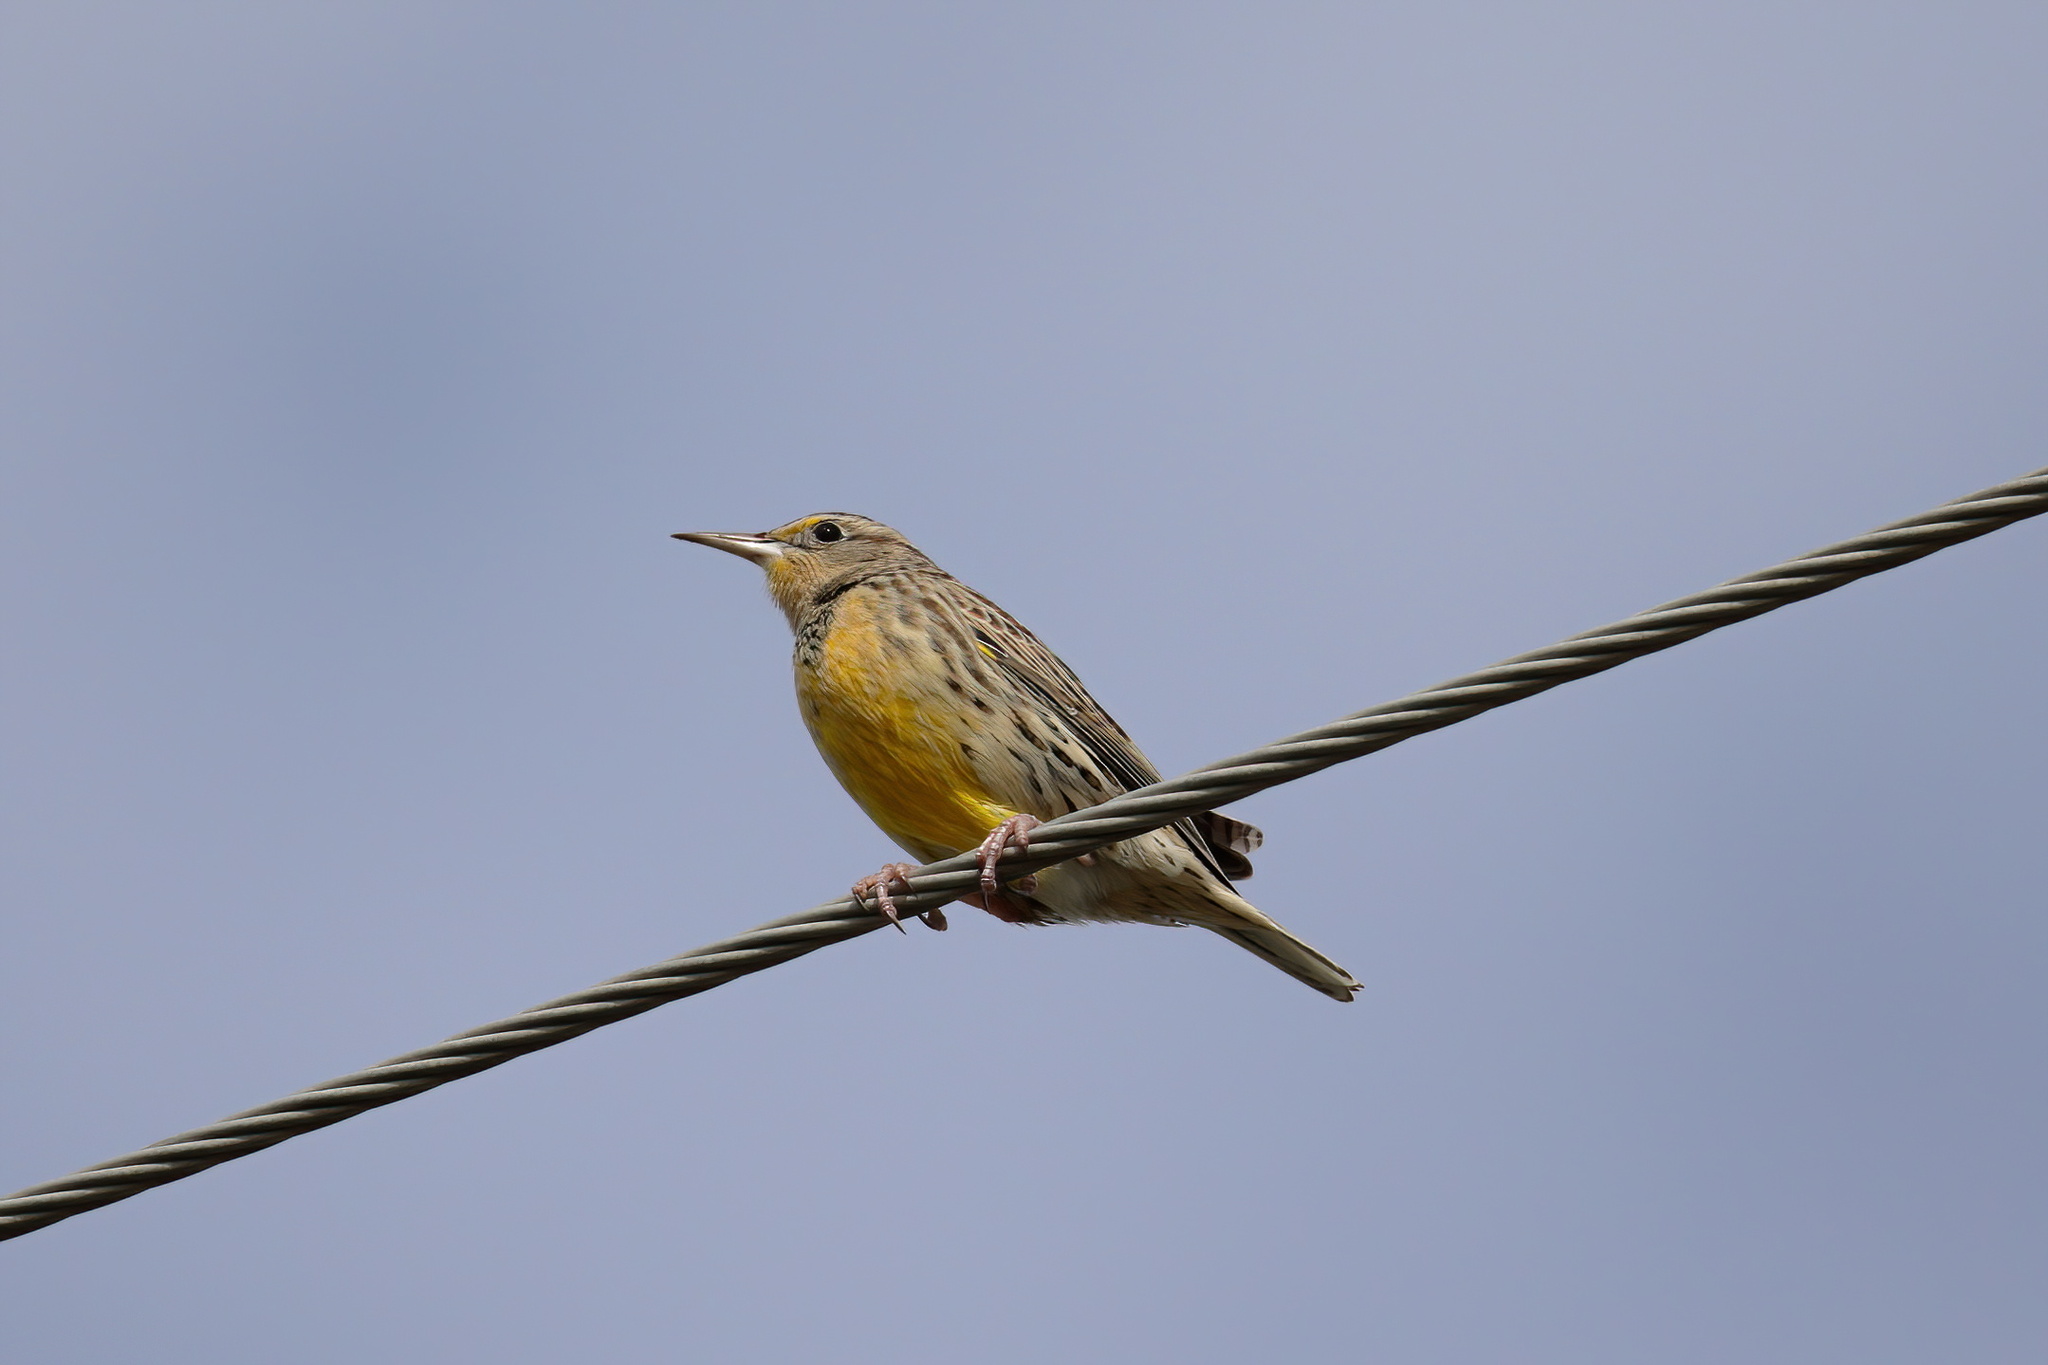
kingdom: Animalia
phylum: Chordata
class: Aves
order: Passeriformes
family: Icteridae
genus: Sturnella
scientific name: Sturnella magna
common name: Eastern meadowlark
